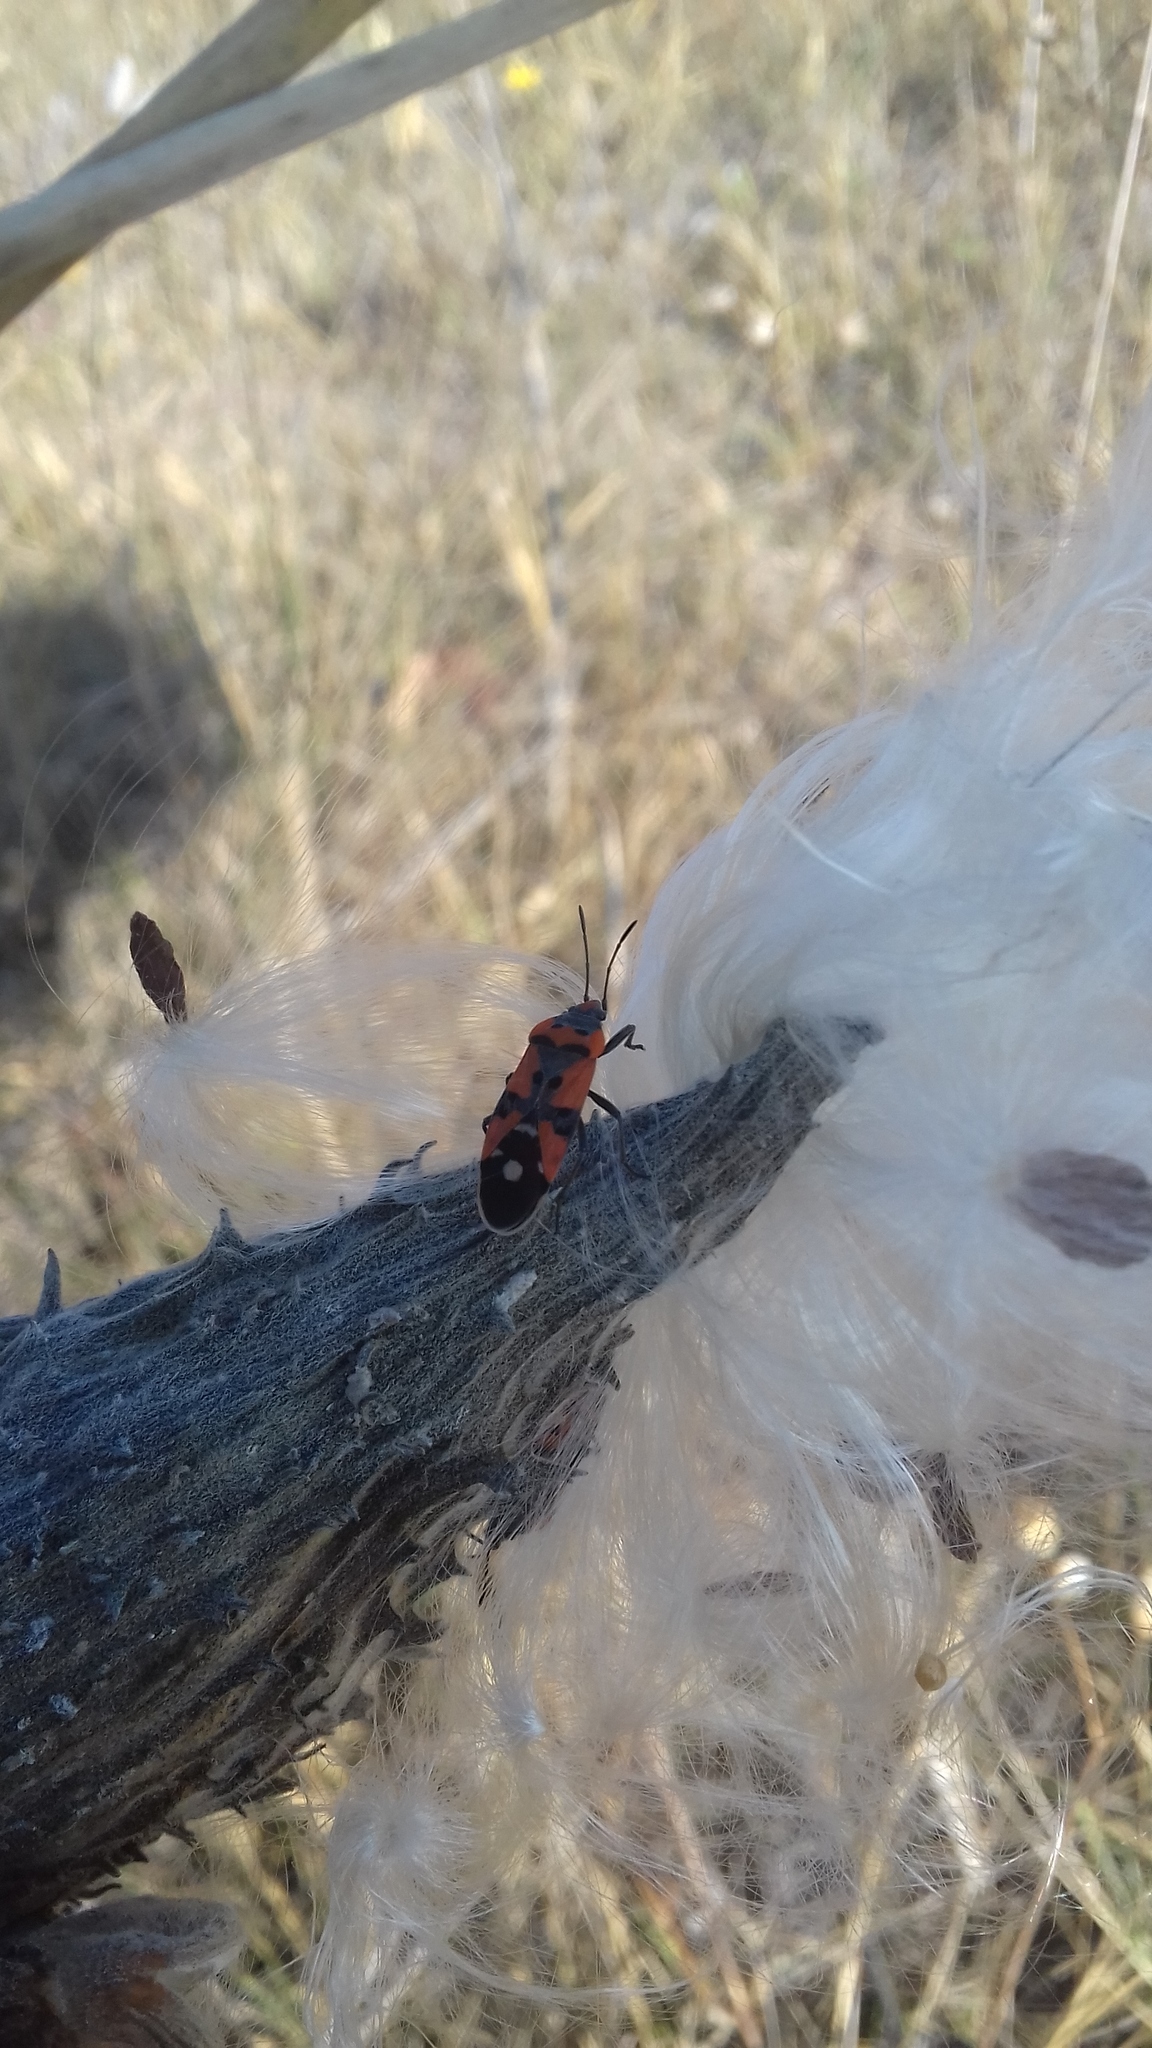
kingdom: Animalia
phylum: Arthropoda
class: Insecta
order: Hemiptera
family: Lygaeidae
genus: Lygaeus
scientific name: Lygaeus equestris
